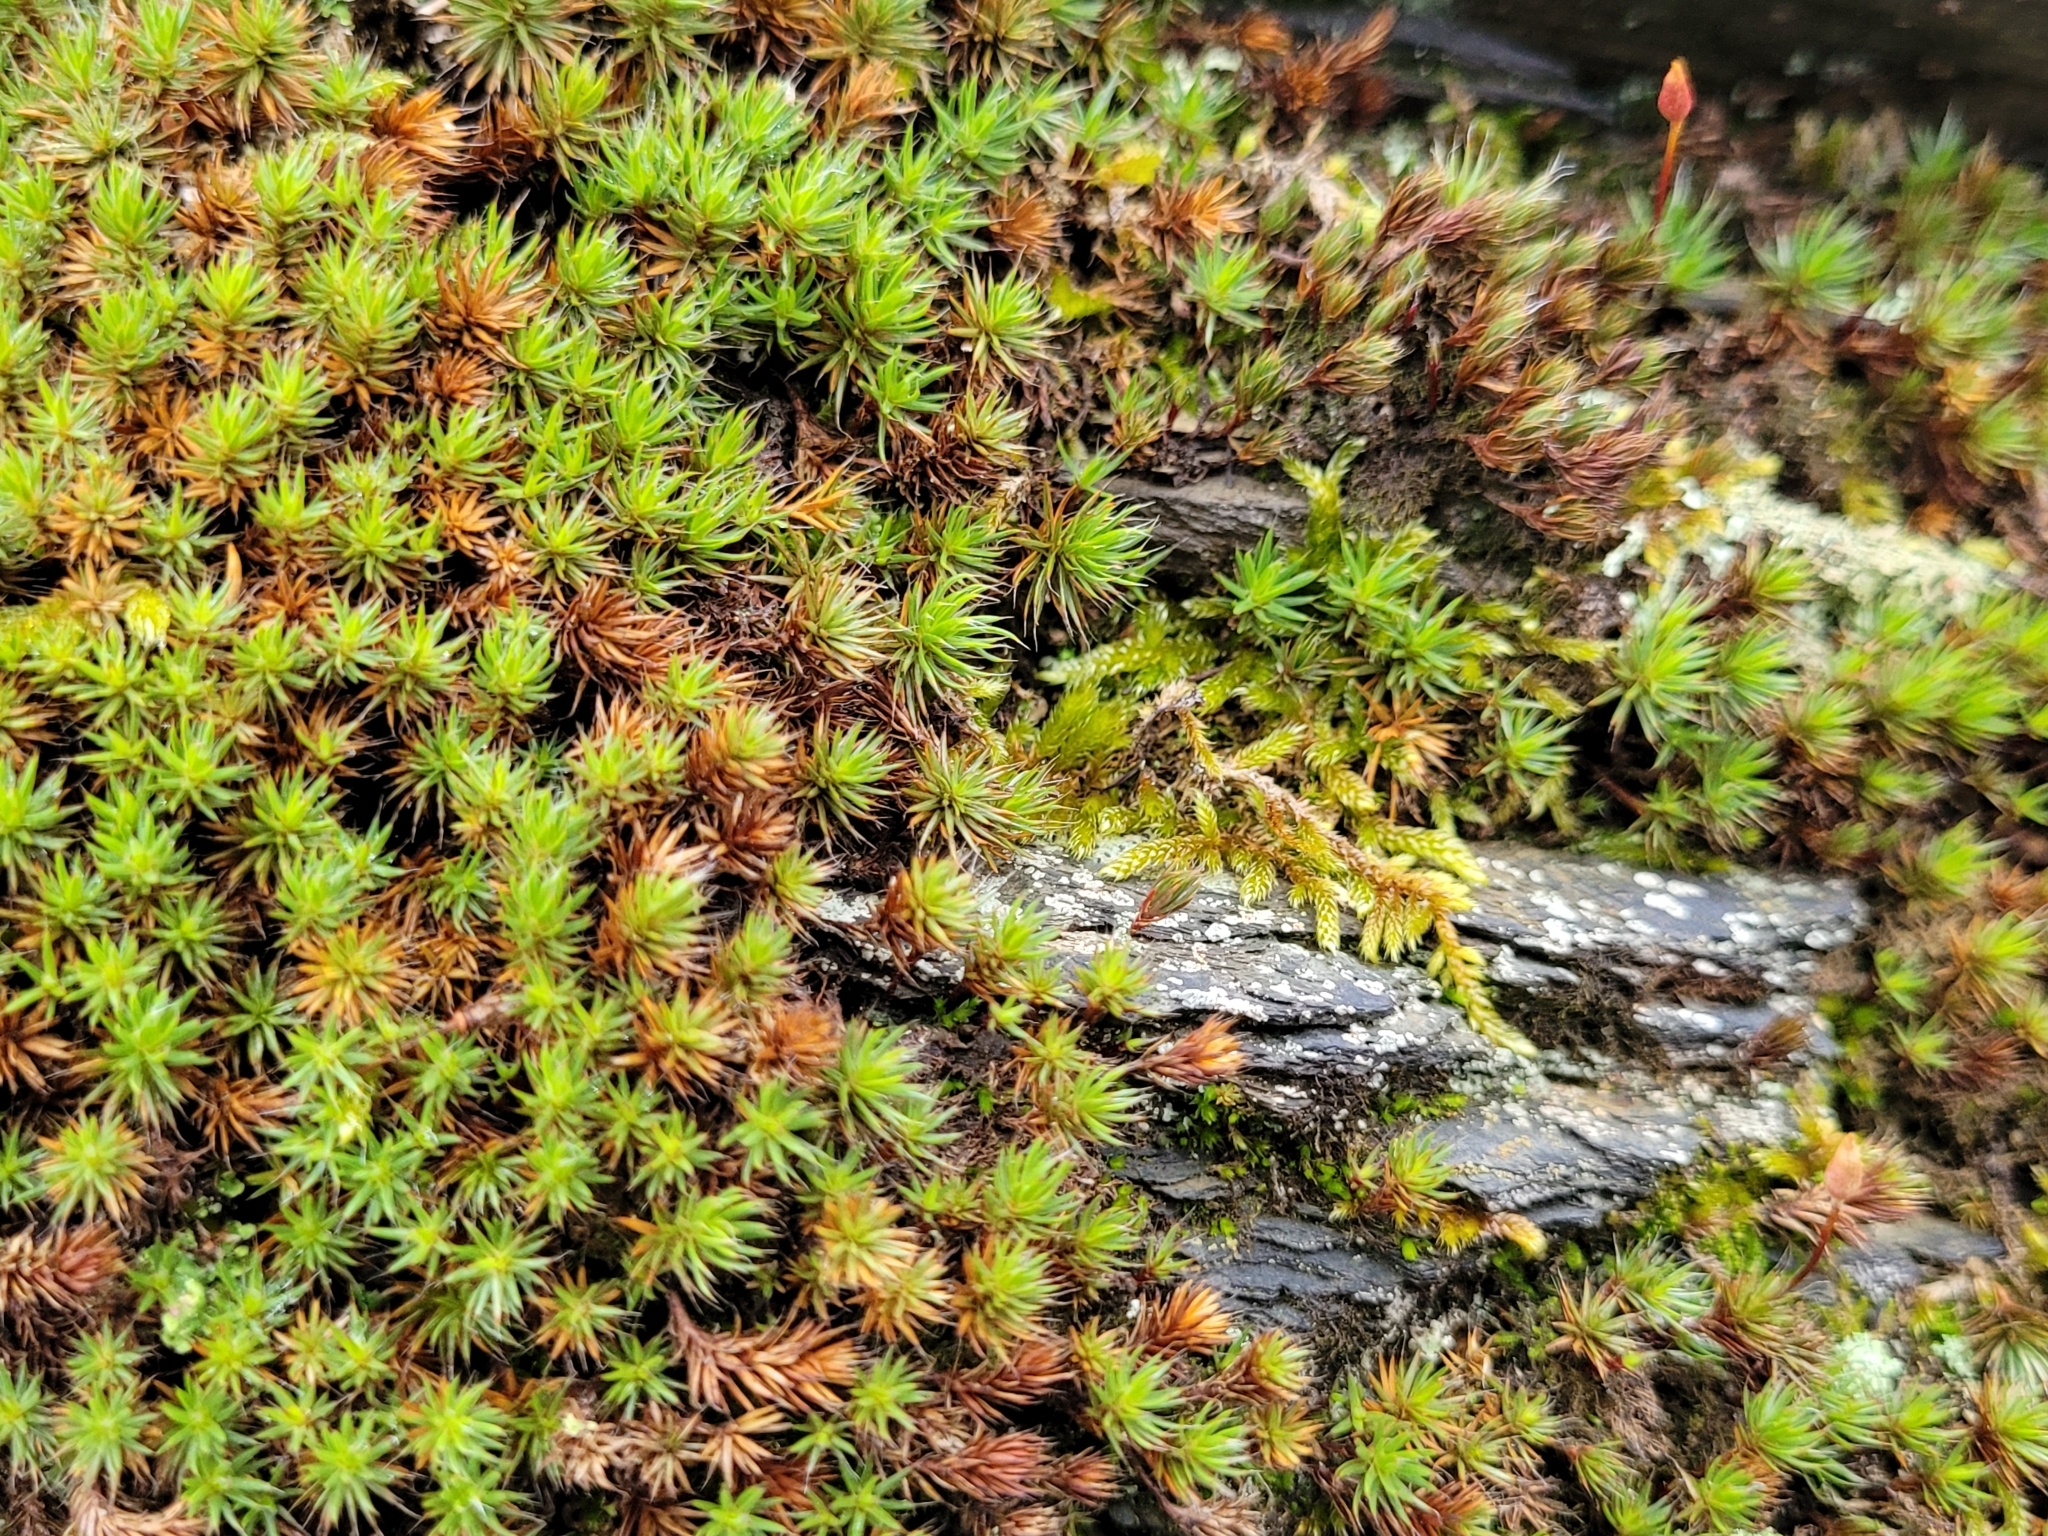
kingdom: Plantae
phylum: Bryophyta
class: Polytrichopsida
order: Polytrichales
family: Polytrichaceae
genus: Polytrichum
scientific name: Polytrichum piliferum
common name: Bristly haircap
